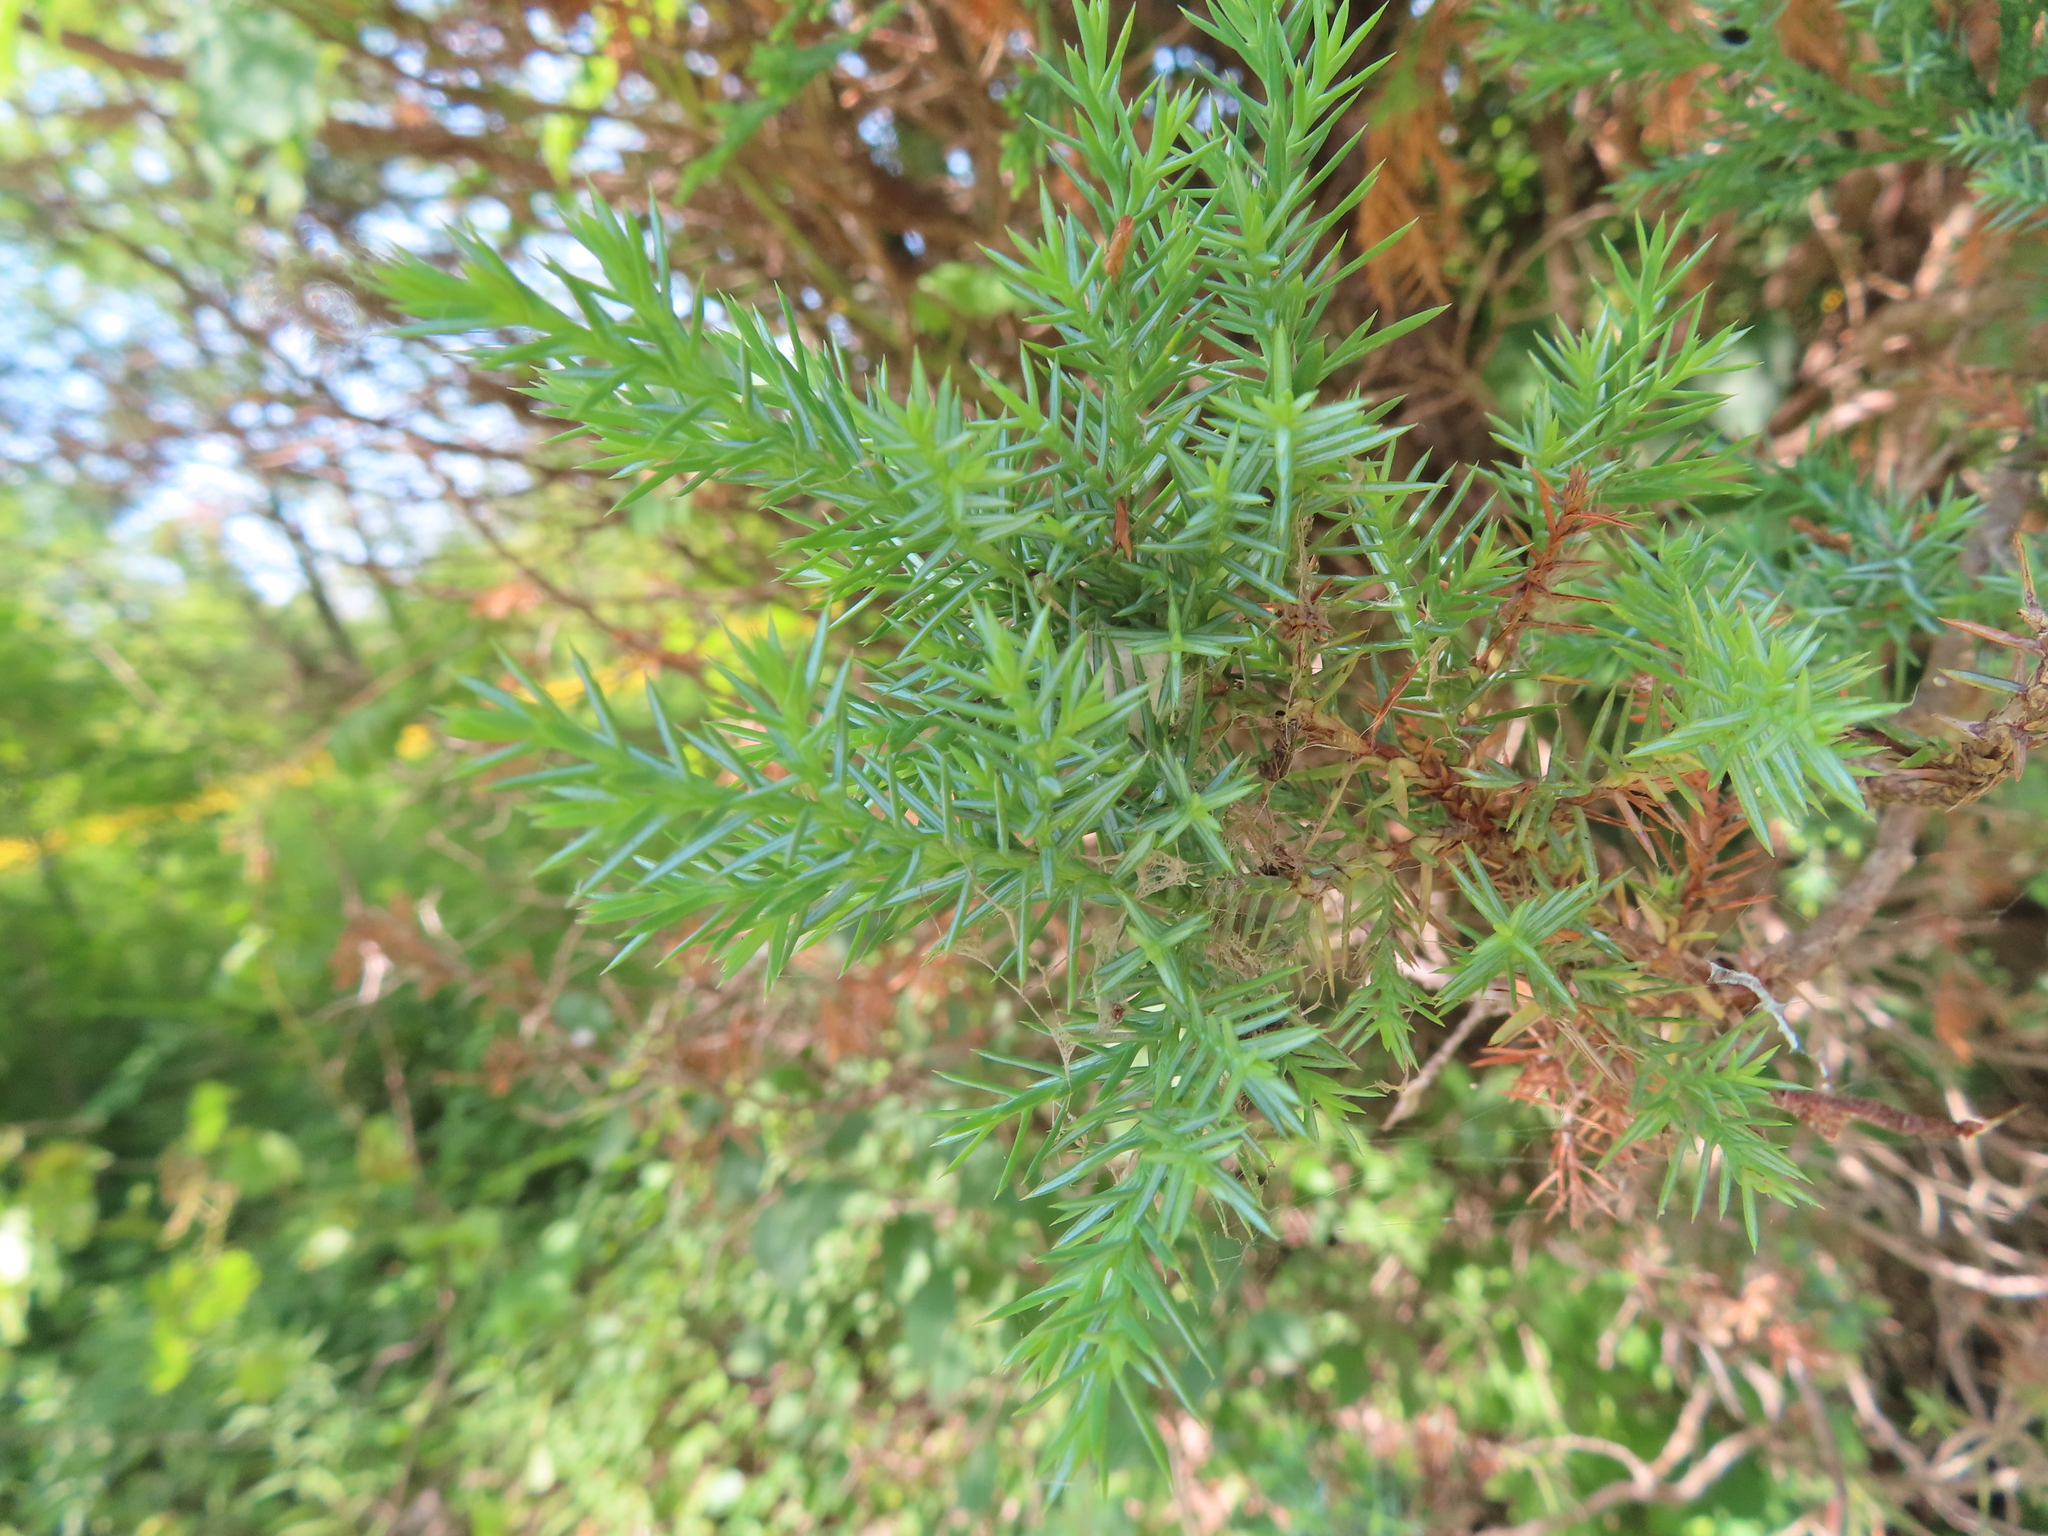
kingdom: Plantae
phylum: Tracheophyta
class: Pinopsida
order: Pinales
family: Cupressaceae
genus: Juniperus
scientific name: Juniperus virginiana
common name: Red juniper
